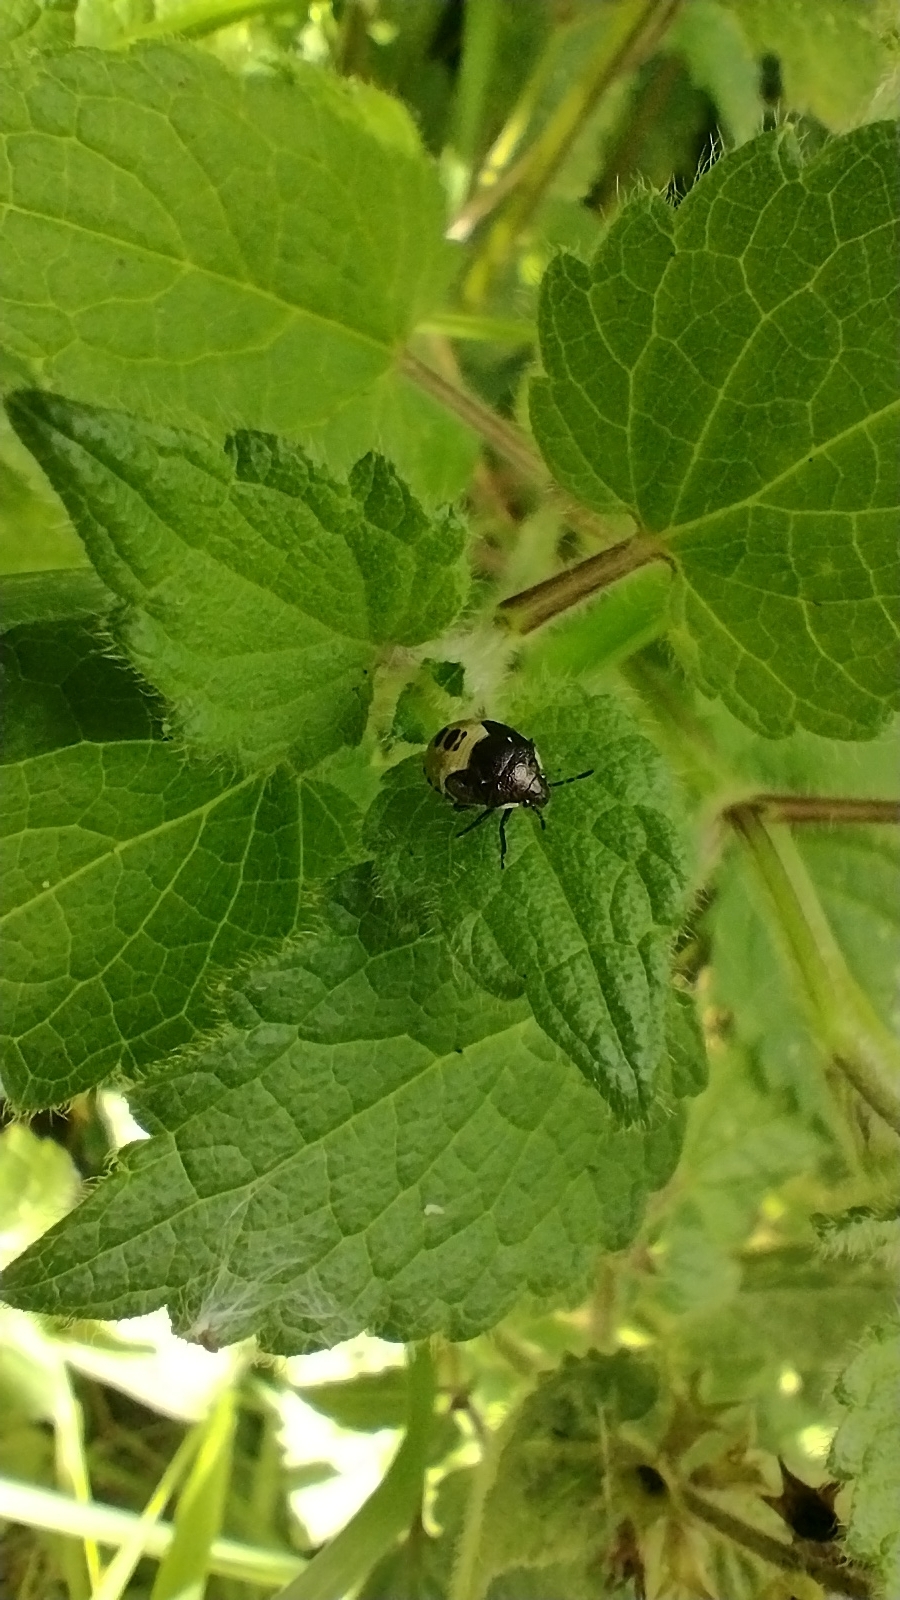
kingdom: Animalia
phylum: Arthropoda
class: Insecta
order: Hemiptera
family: Pentatomidae
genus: Eysarcoris
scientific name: Eysarcoris venustissimus
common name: Woundwort shieldbug
